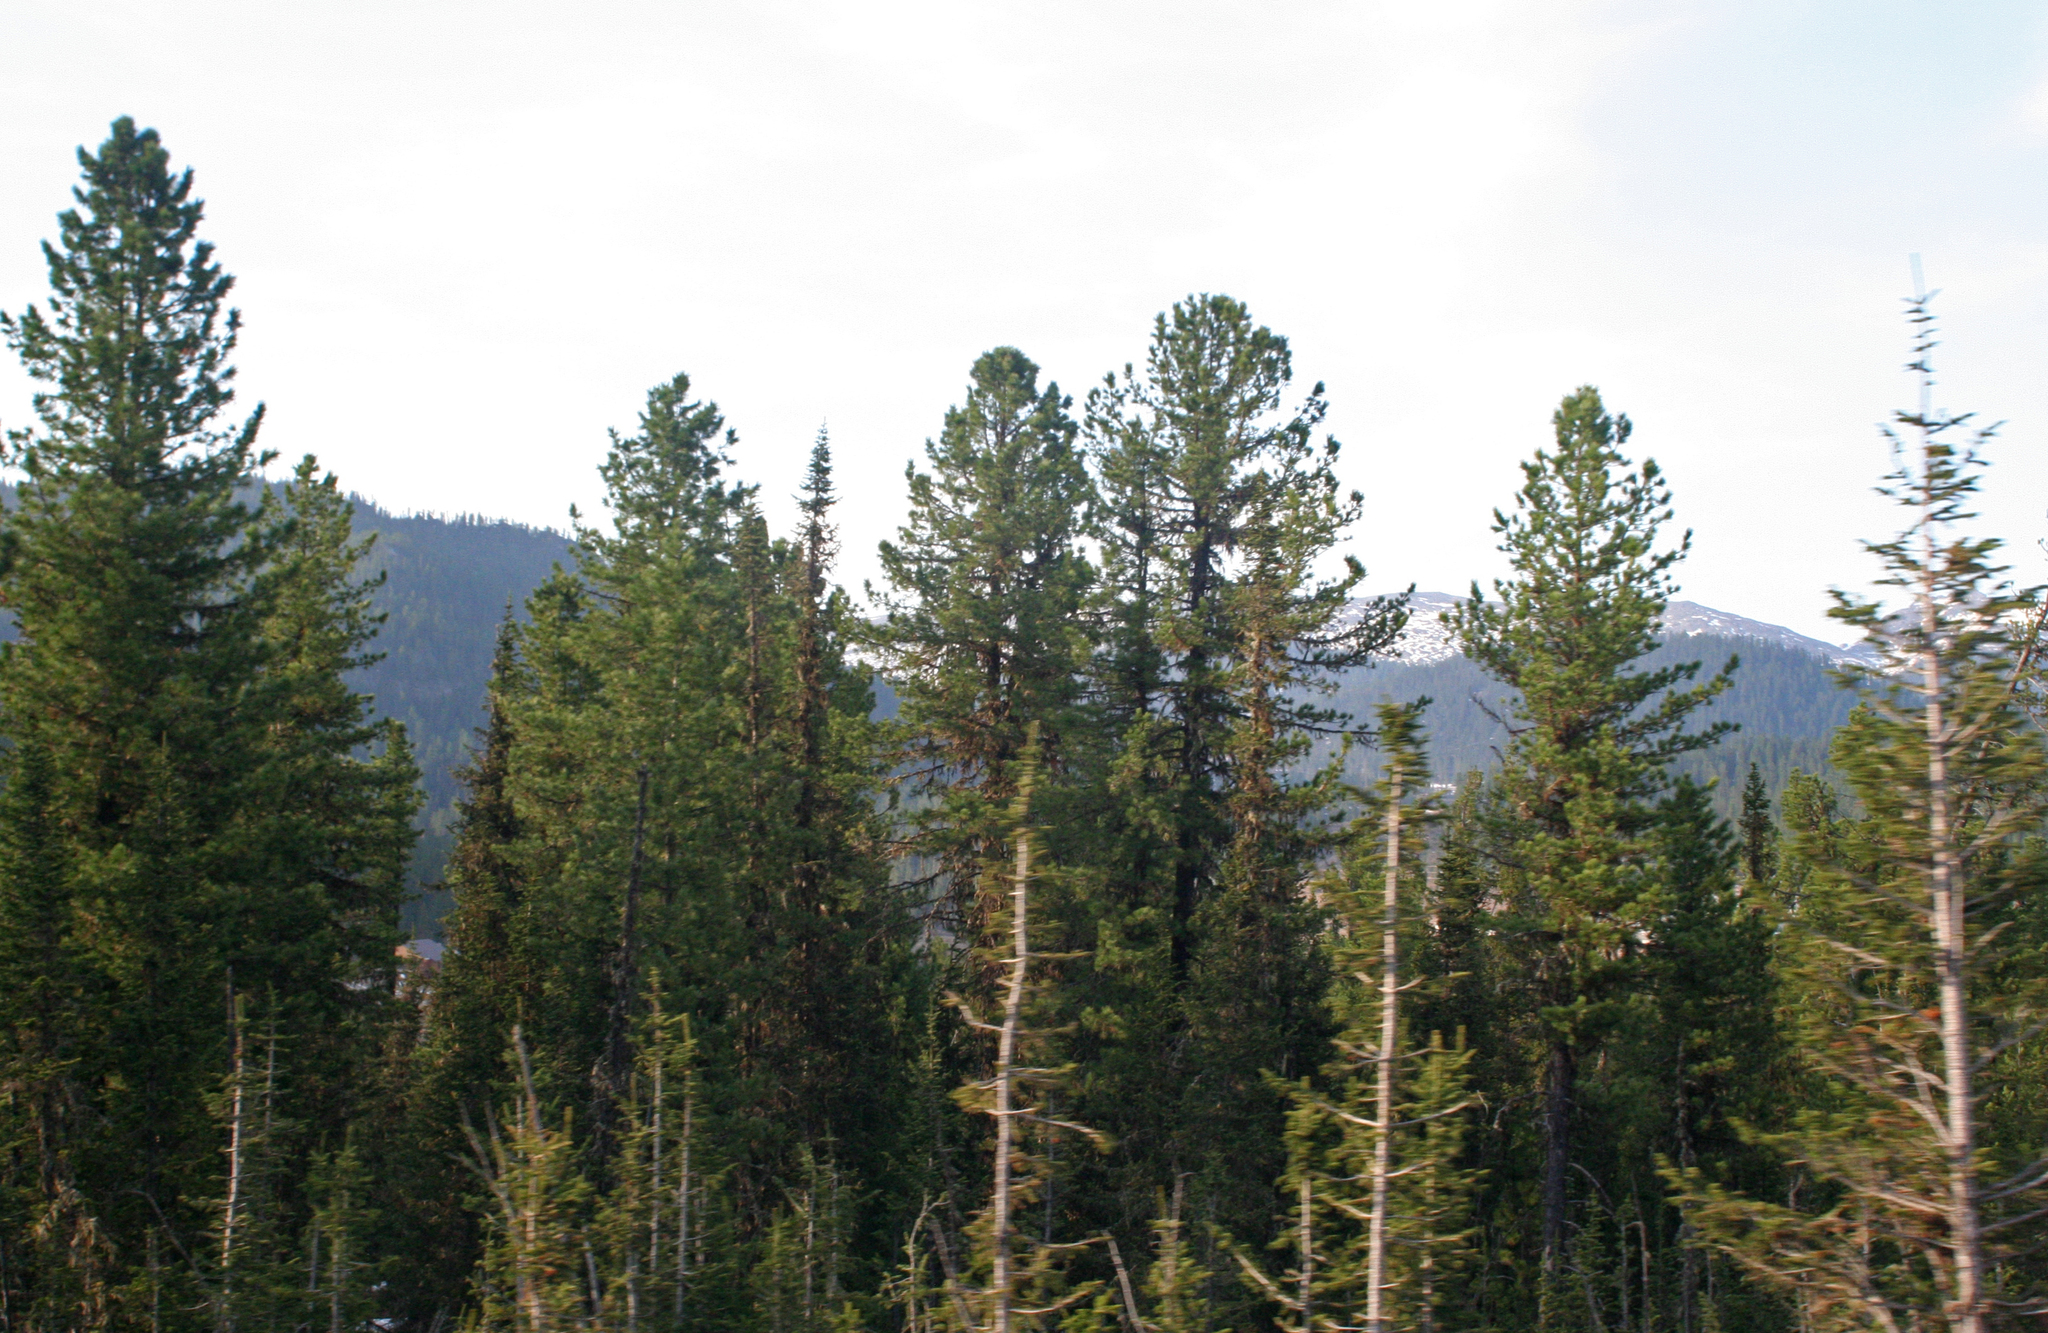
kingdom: Plantae
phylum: Tracheophyta
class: Pinopsida
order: Pinales
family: Pinaceae
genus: Pinus
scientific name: Pinus sibirica
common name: Siberian pine
